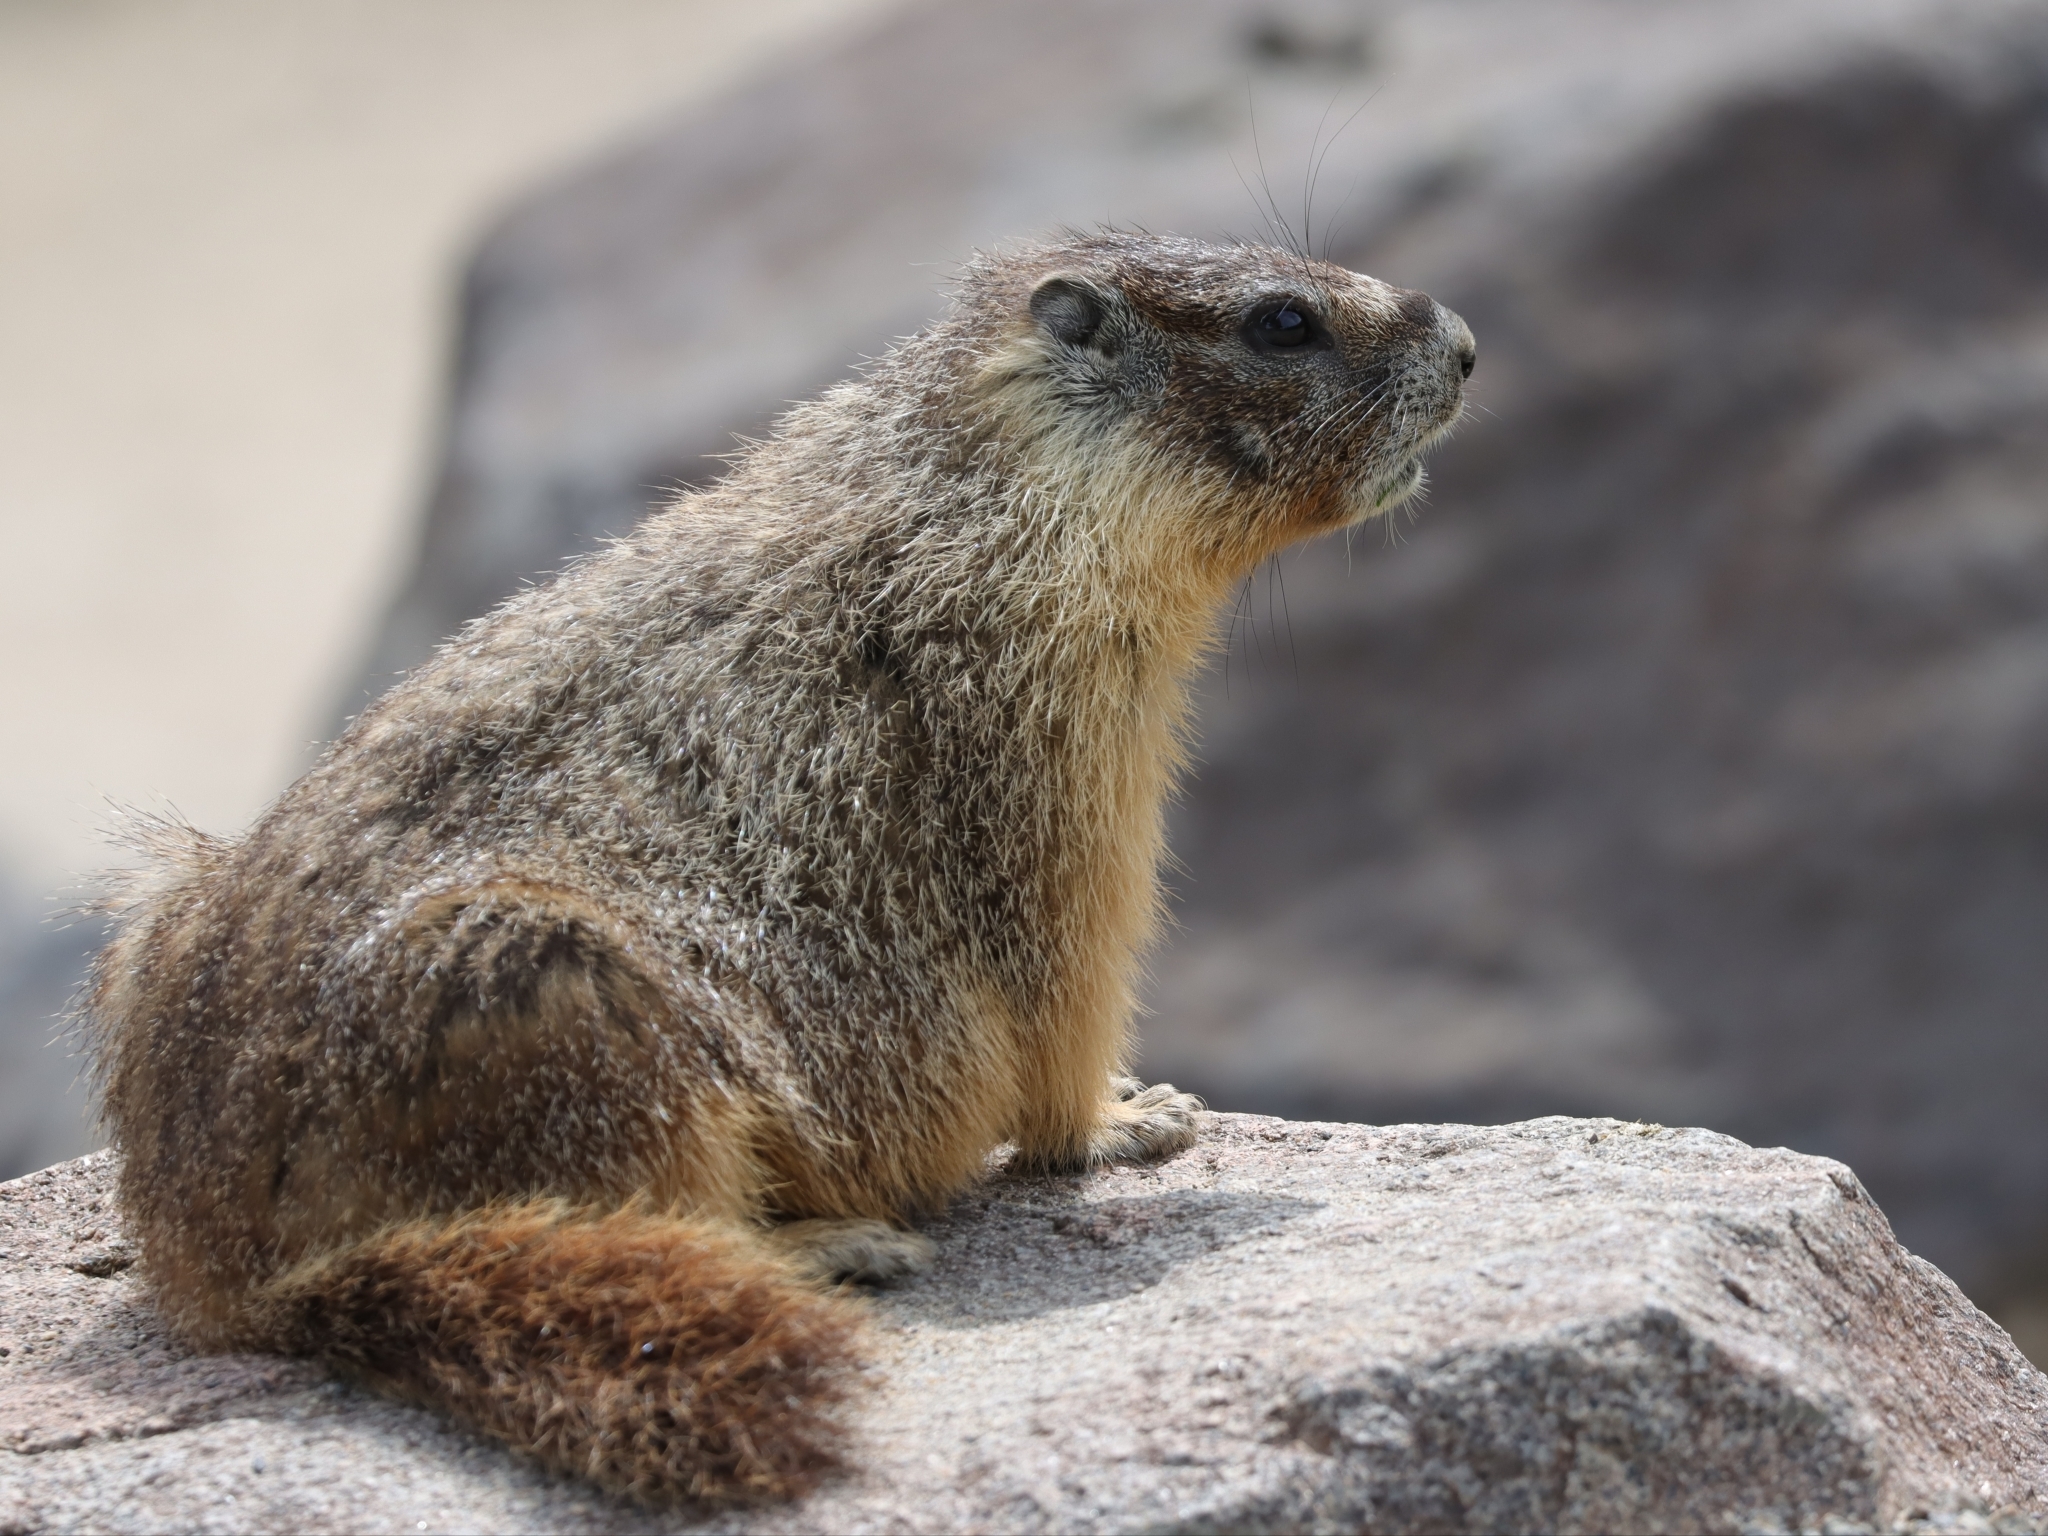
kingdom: Animalia
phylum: Chordata
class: Mammalia
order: Rodentia
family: Sciuridae
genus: Marmota
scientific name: Marmota flaviventris
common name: Yellow-bellied marmot
